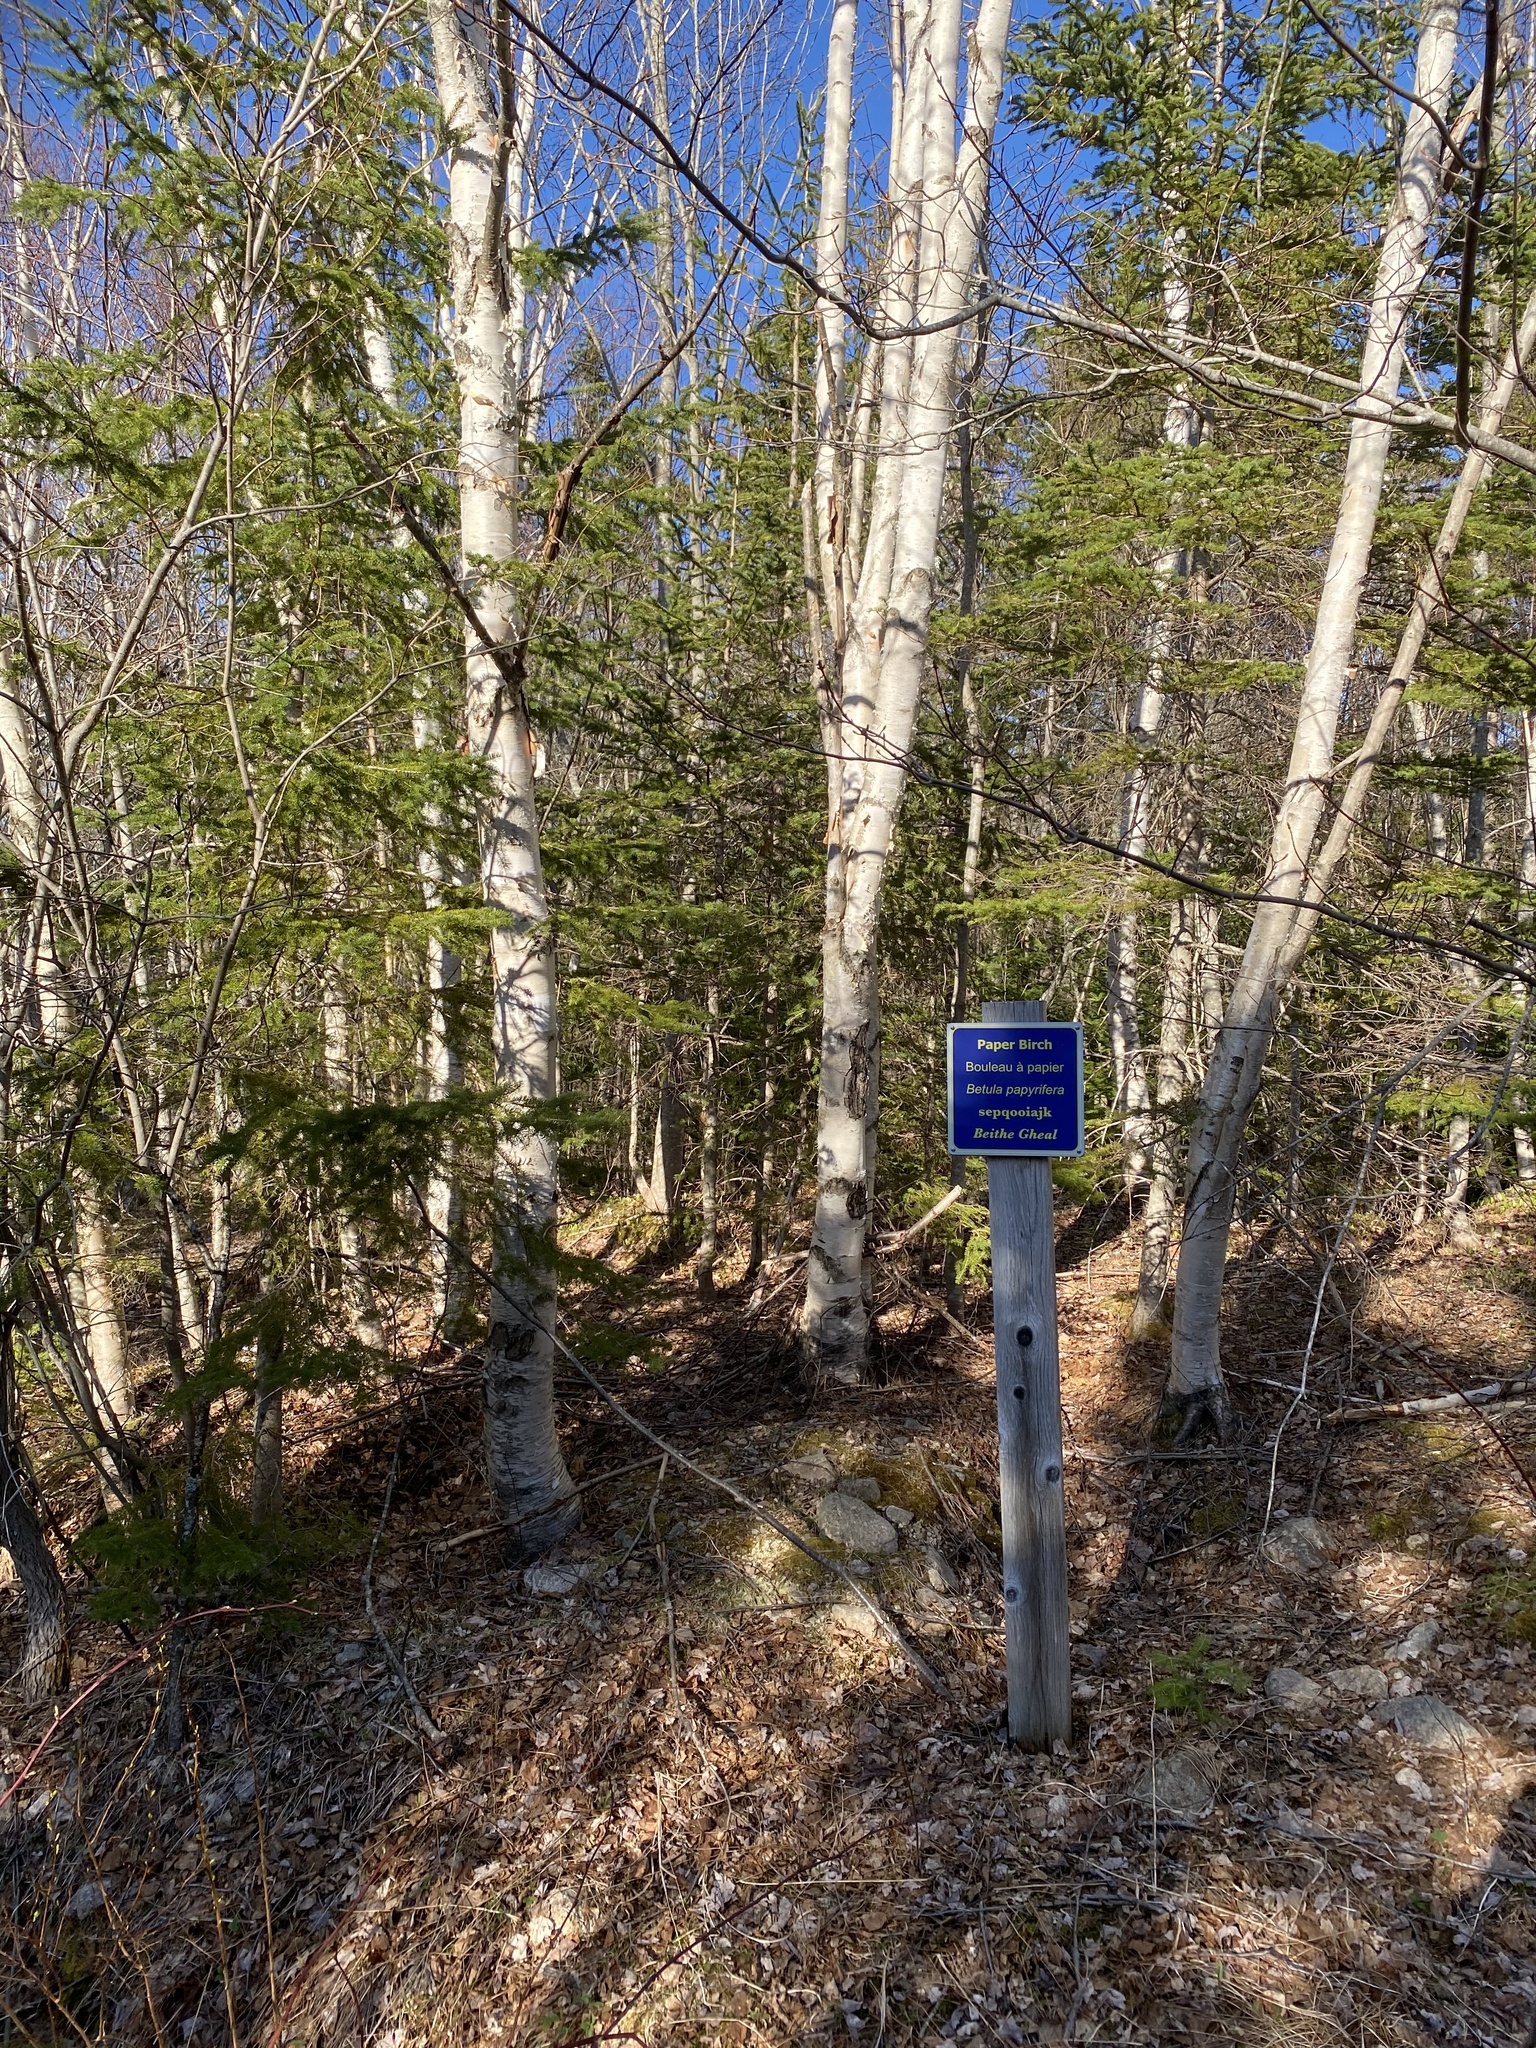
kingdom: Plantae
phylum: Tracheophyta
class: Magnoliopsida
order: Fagales
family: Betulaceae
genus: Betula
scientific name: Betula papyrifera
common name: Paper birch
